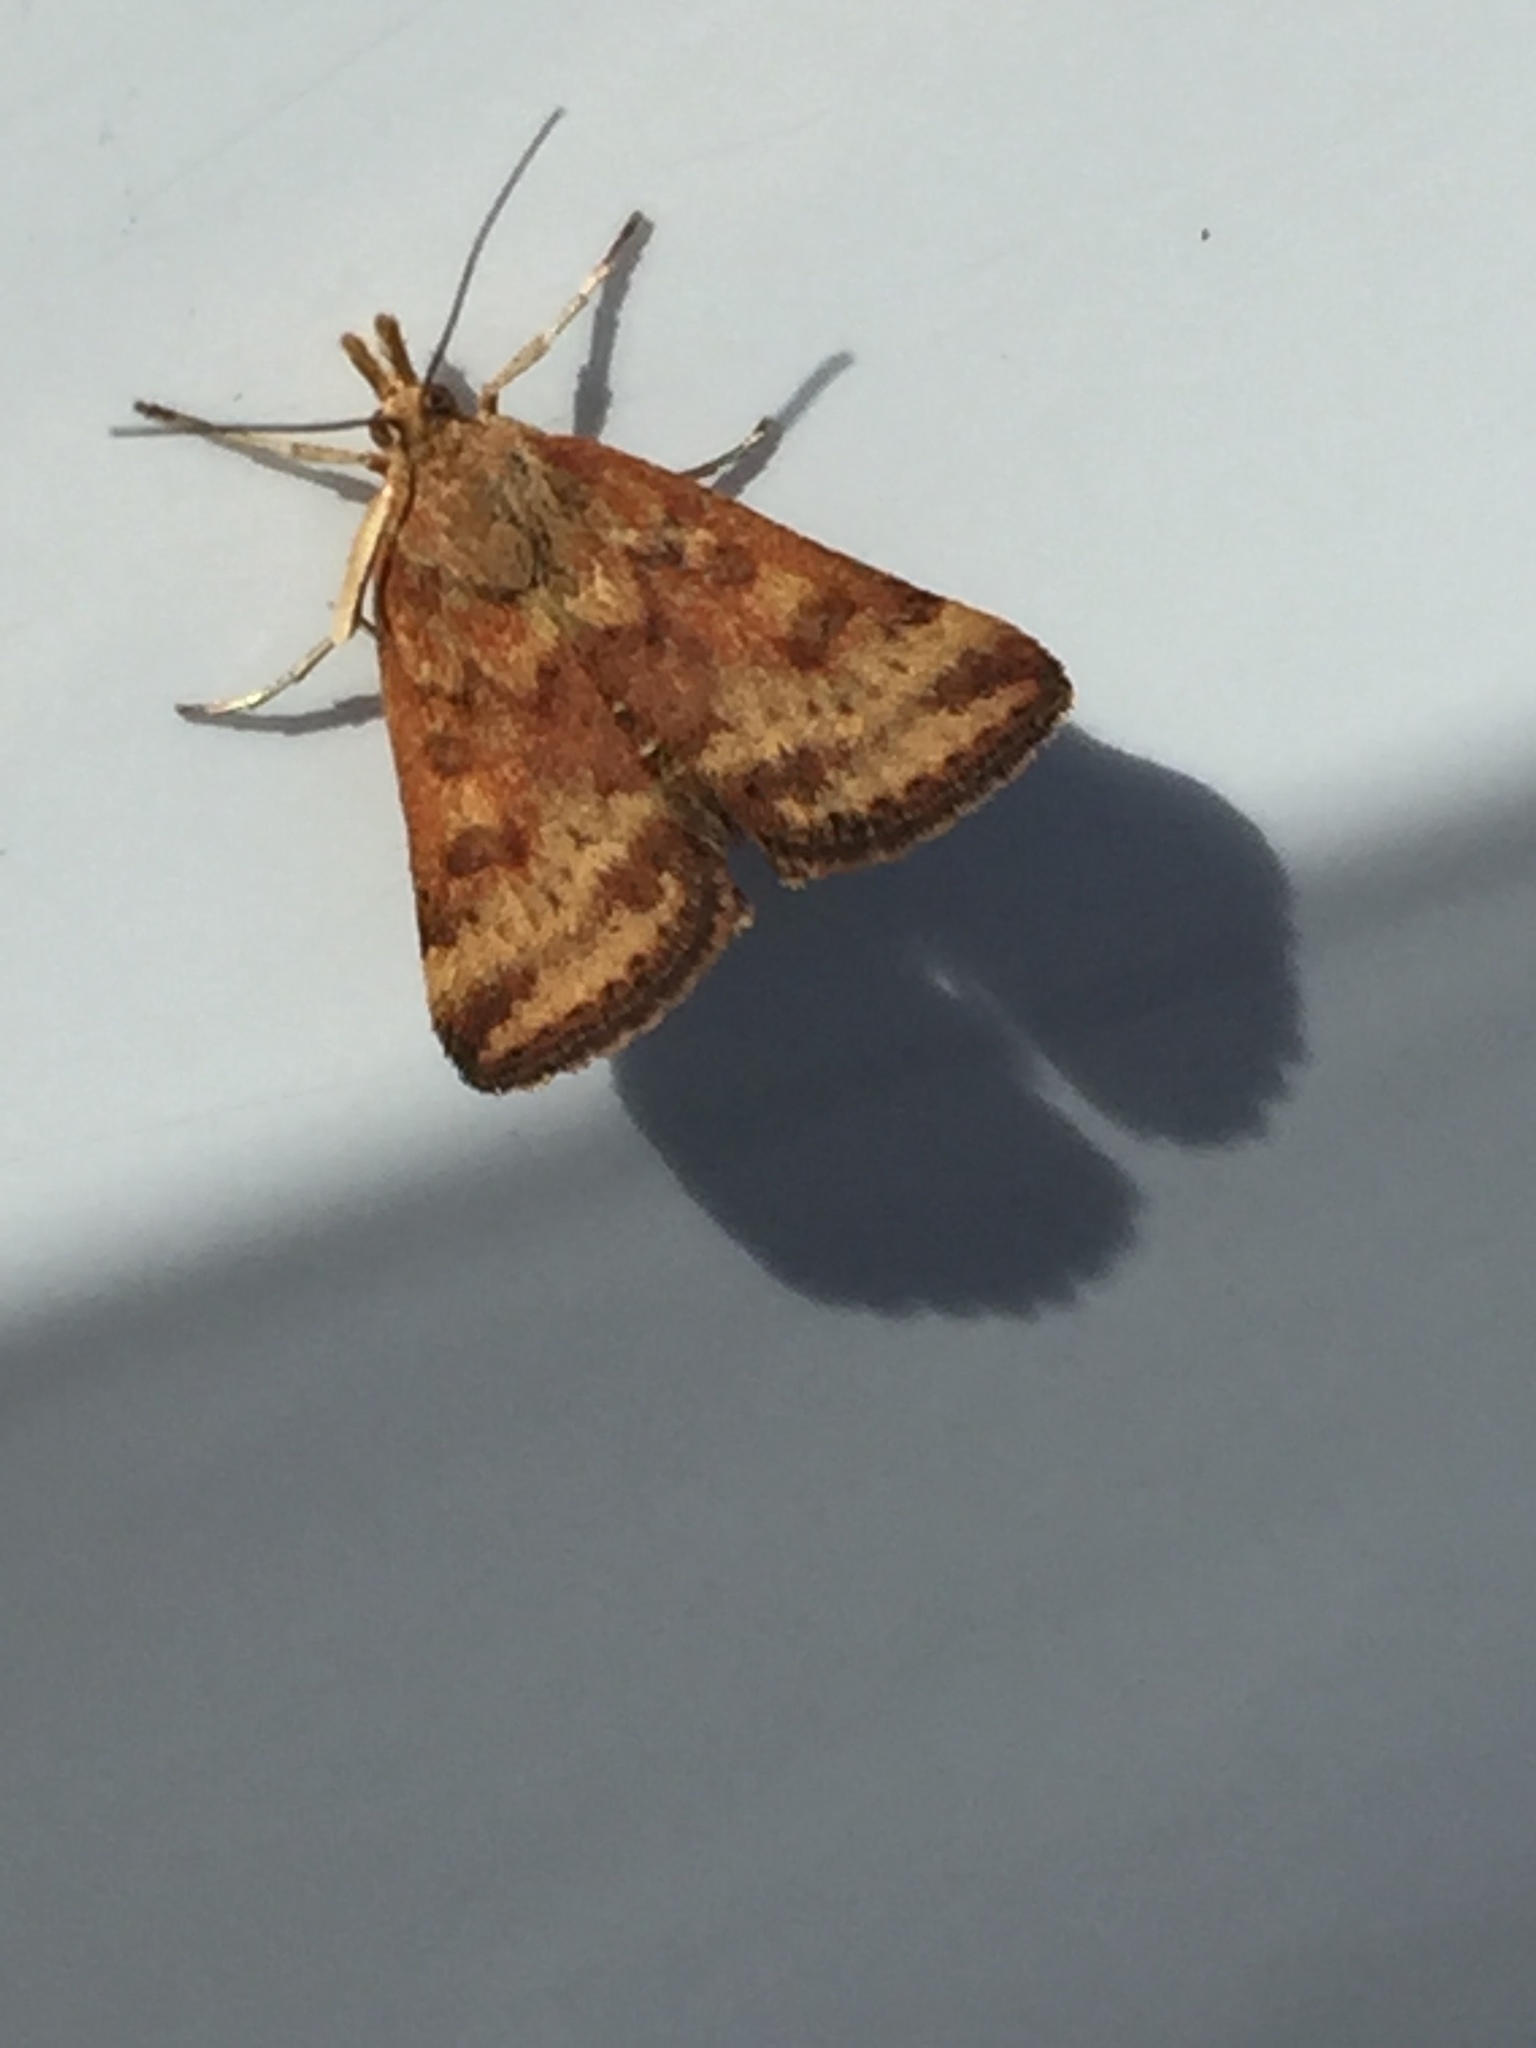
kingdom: Animalia
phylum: Arthropoda
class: Insecta
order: Lepidoptera
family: Crambidae
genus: Pyrausta
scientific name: Pyrausta subsequalis
